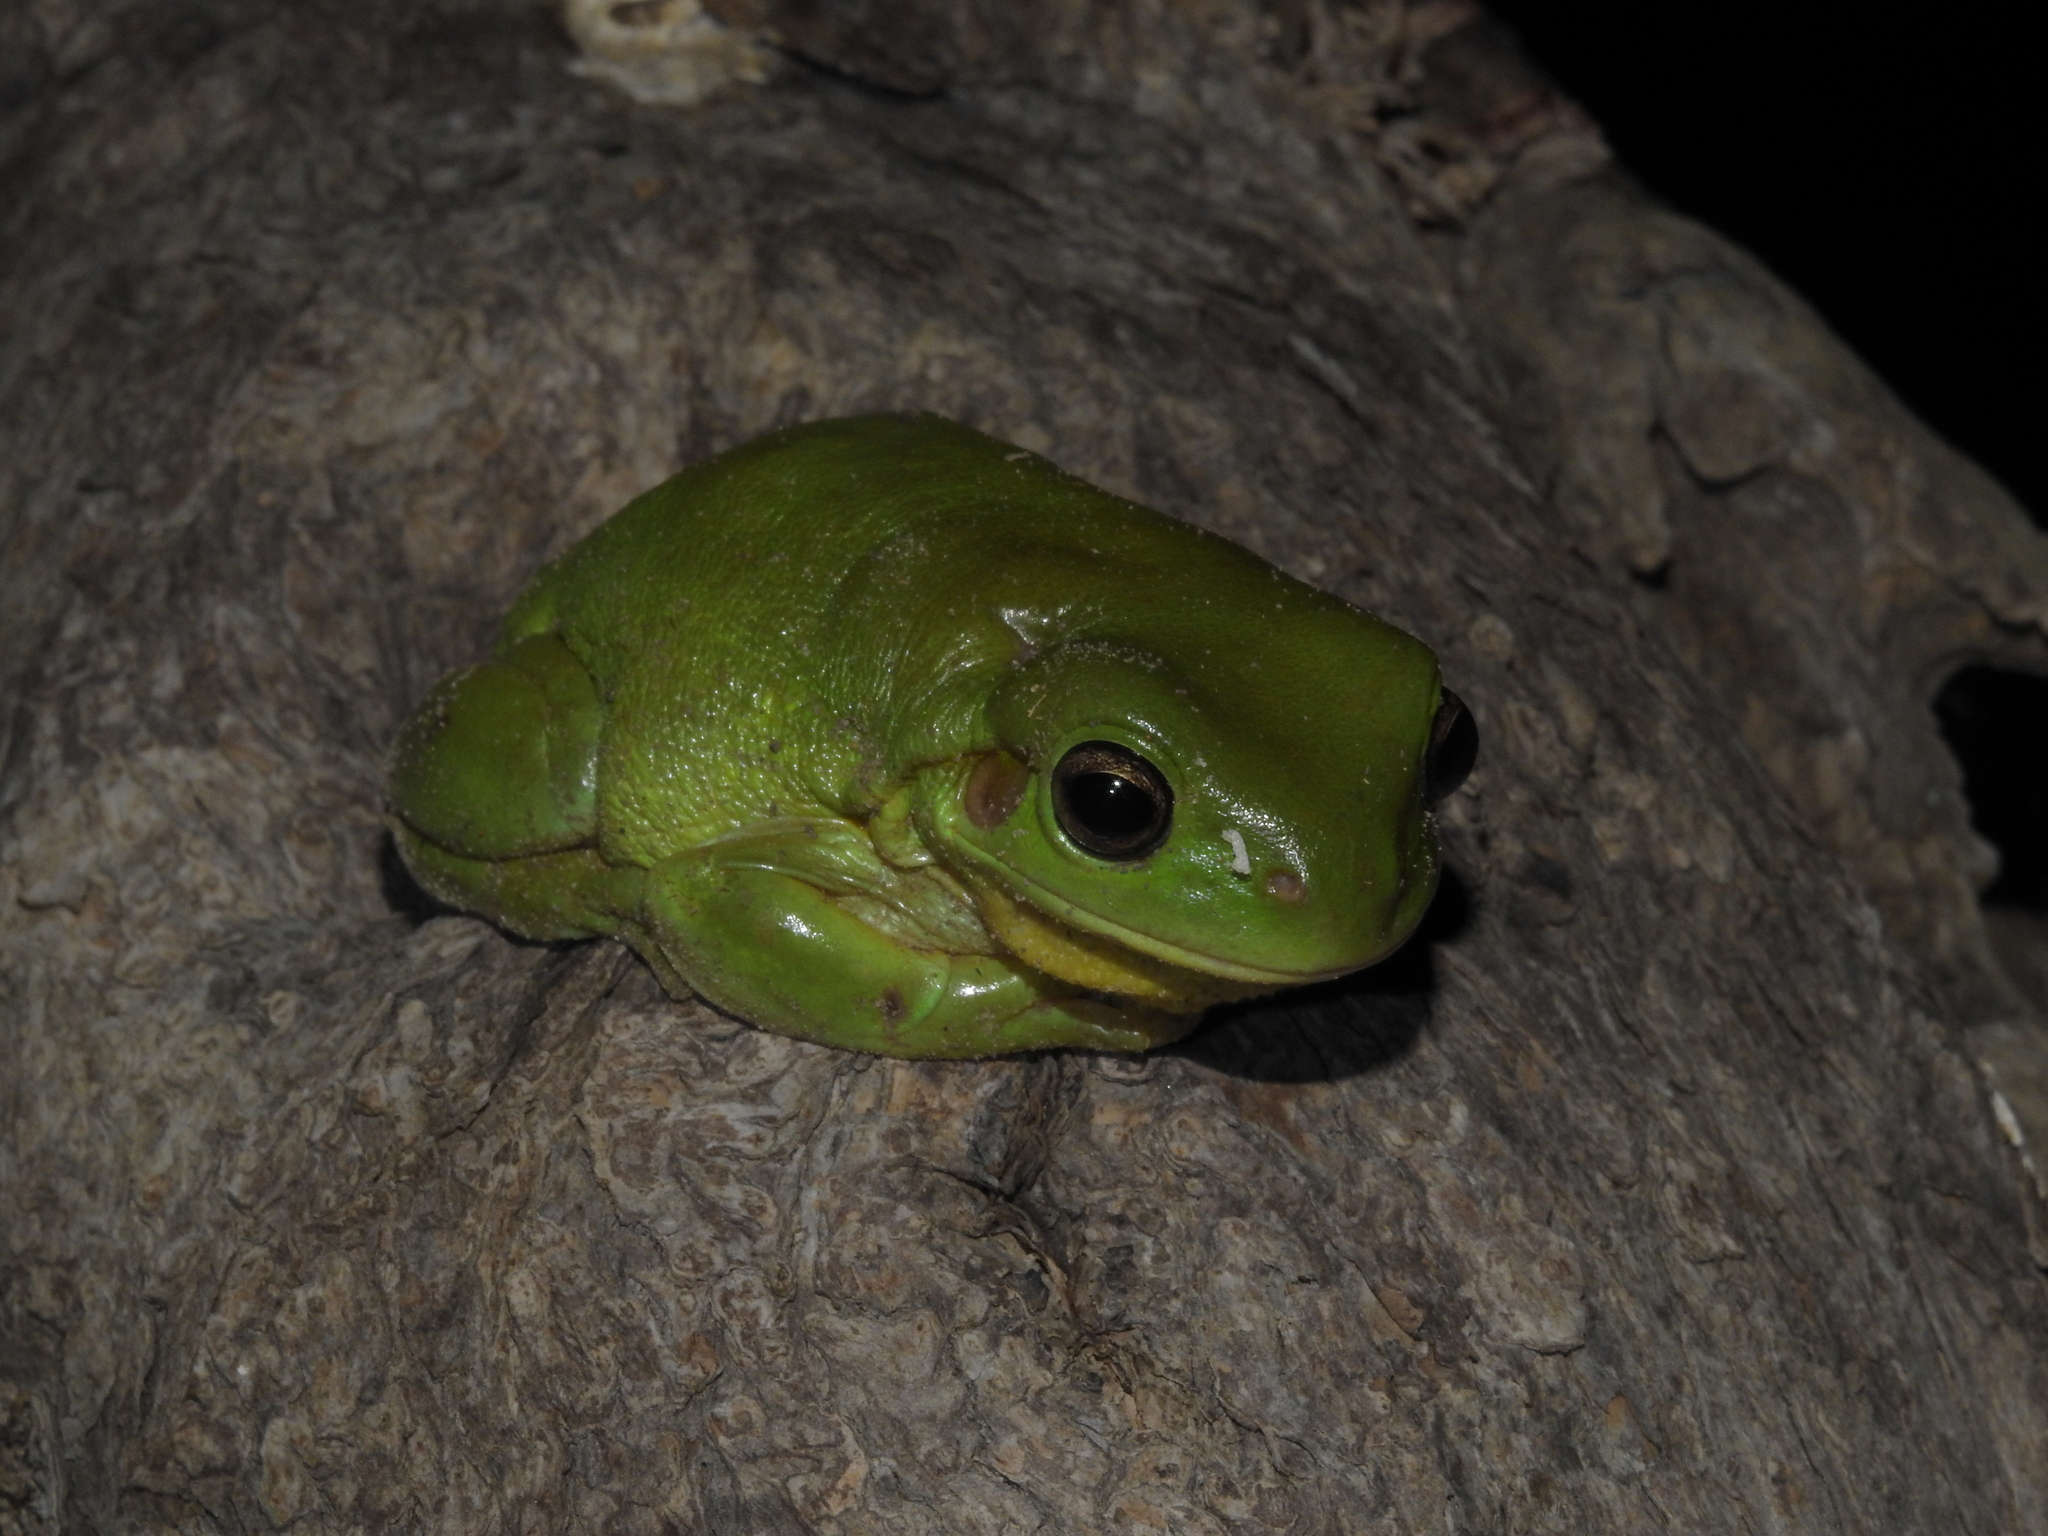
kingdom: Animalia
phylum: Chordata
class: Amphibia
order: Anura
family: Pelodryadidae
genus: Ranoidea
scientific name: Ranoidea caerulea
